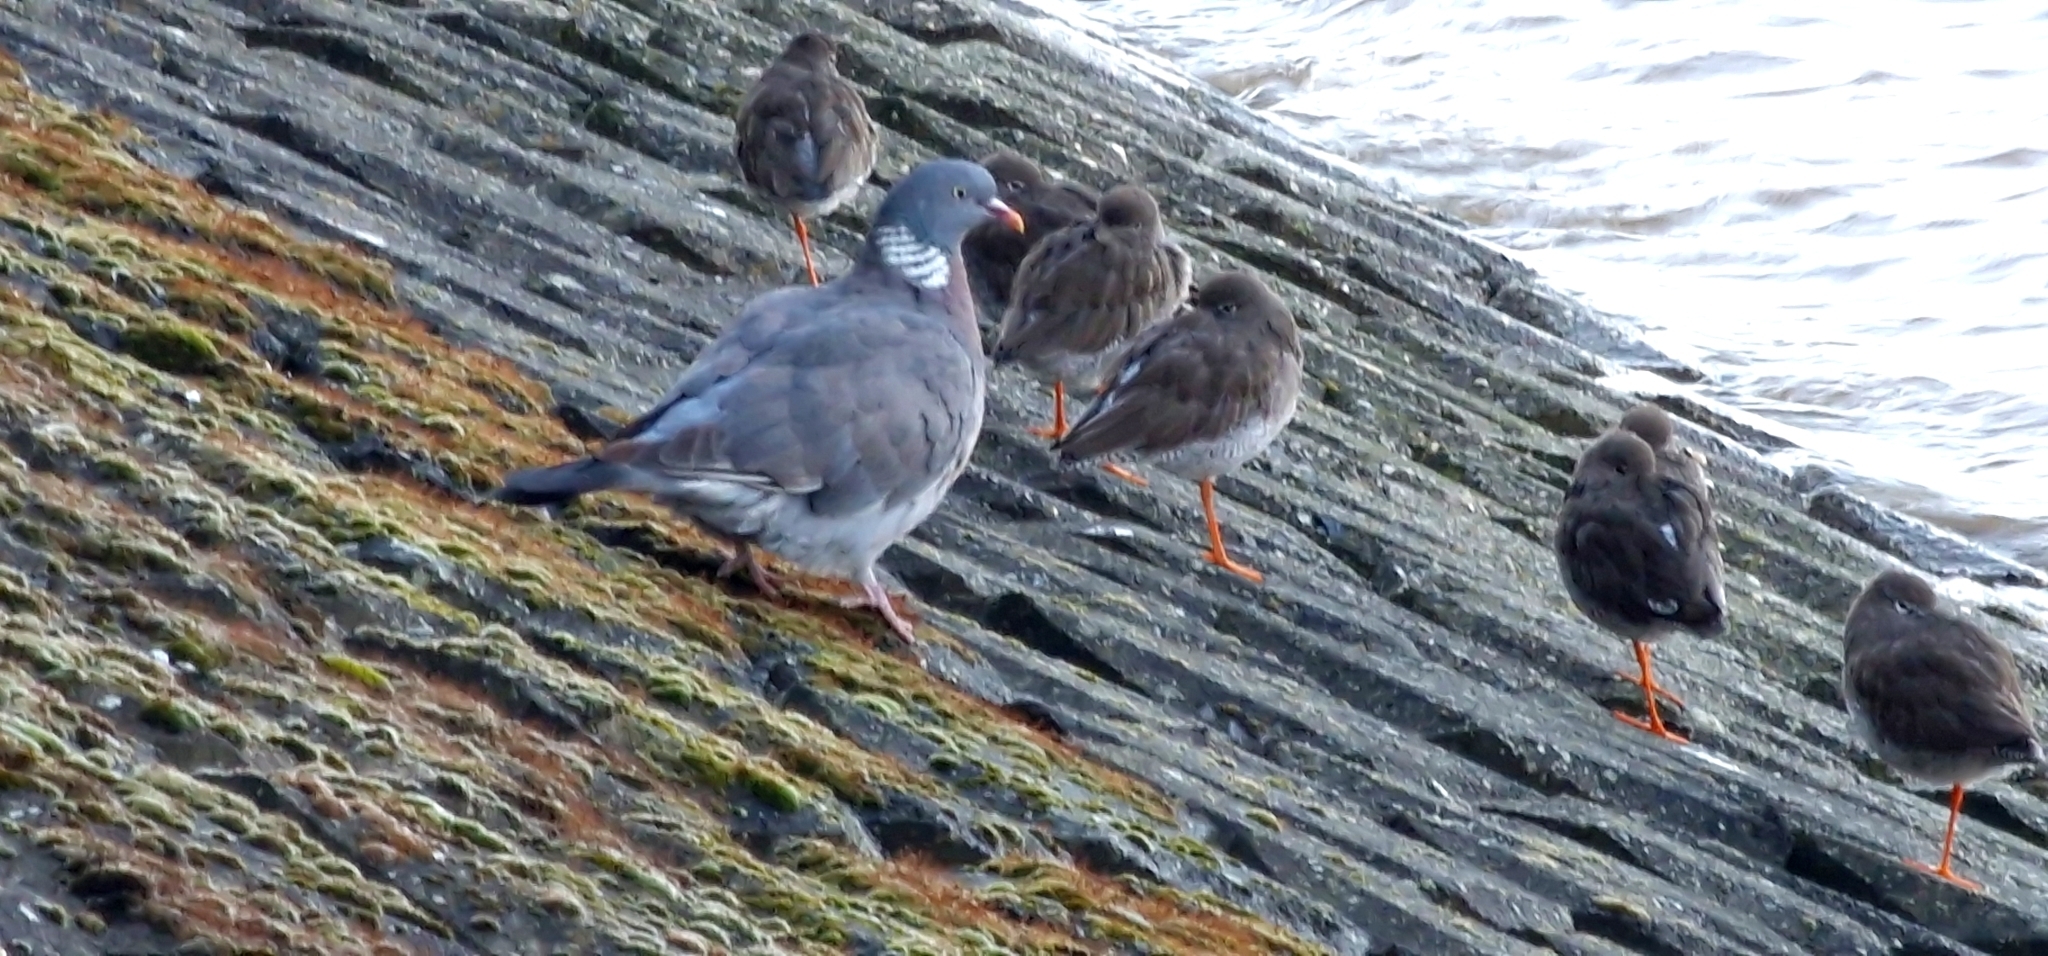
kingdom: Animalia
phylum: Chordata
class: Aves
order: Columbiformes
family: Columbidae
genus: Columba
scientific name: Columba palumbus
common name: Common wood pigeon
